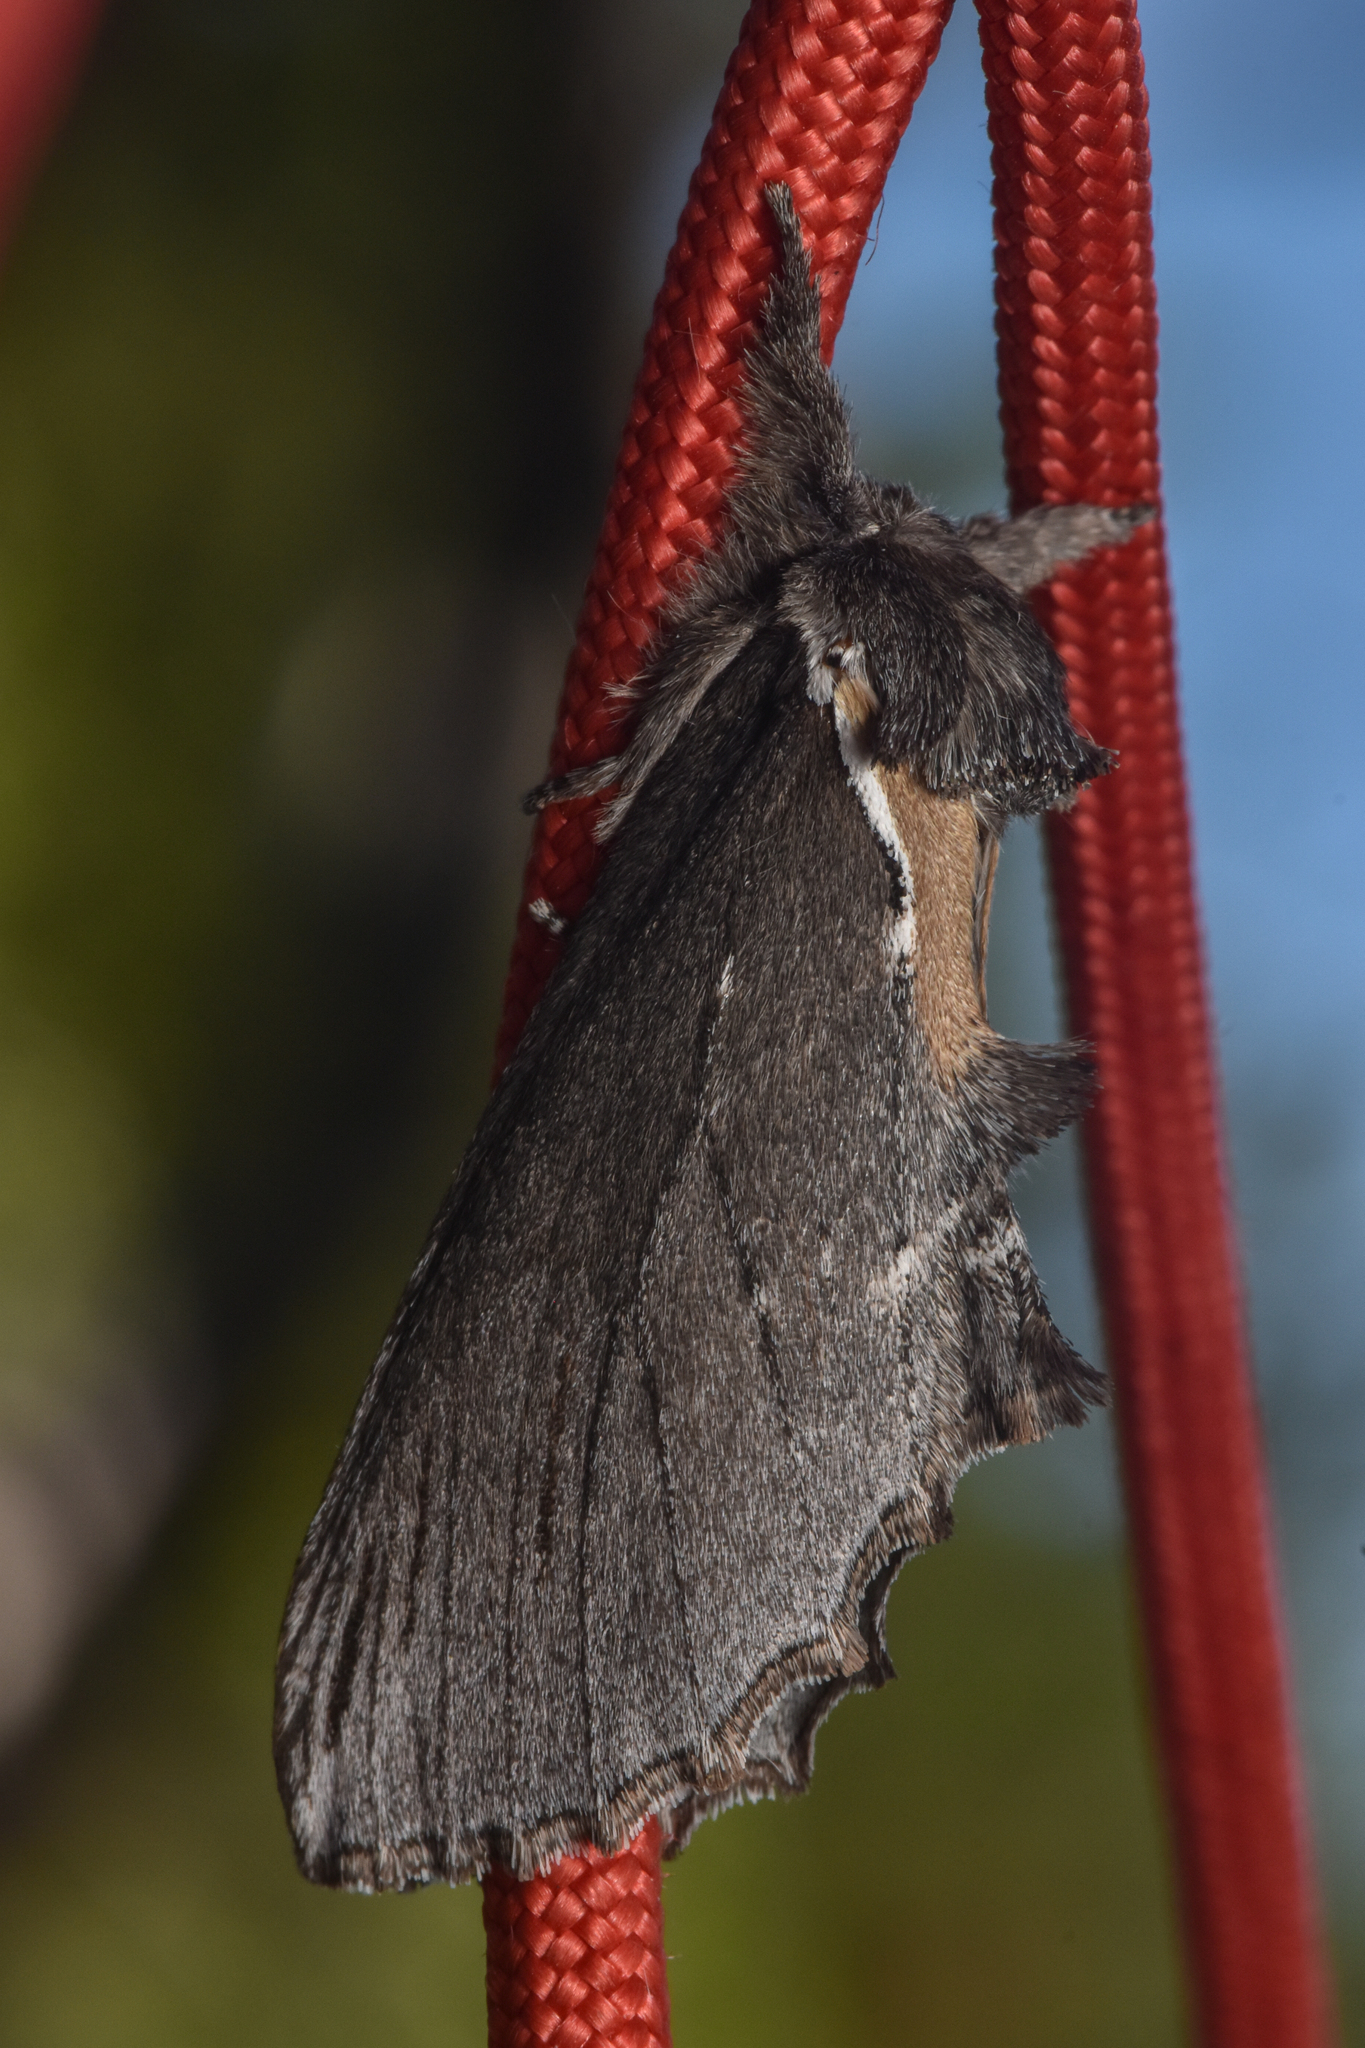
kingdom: Animalia
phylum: Arthropoda
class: Insecta
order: Lepidoptera
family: Notodontidae
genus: Pheosidea
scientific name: Pheosidea elegans
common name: Elegant prominent
